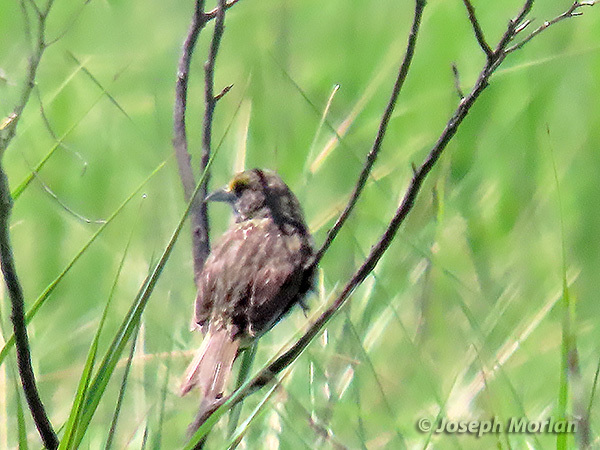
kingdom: Animalia
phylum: Chordata
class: Aves
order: Passeriformes
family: Passerellidae
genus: Ammospiza
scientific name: Ammospiza maritima
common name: Seaside sparrow
